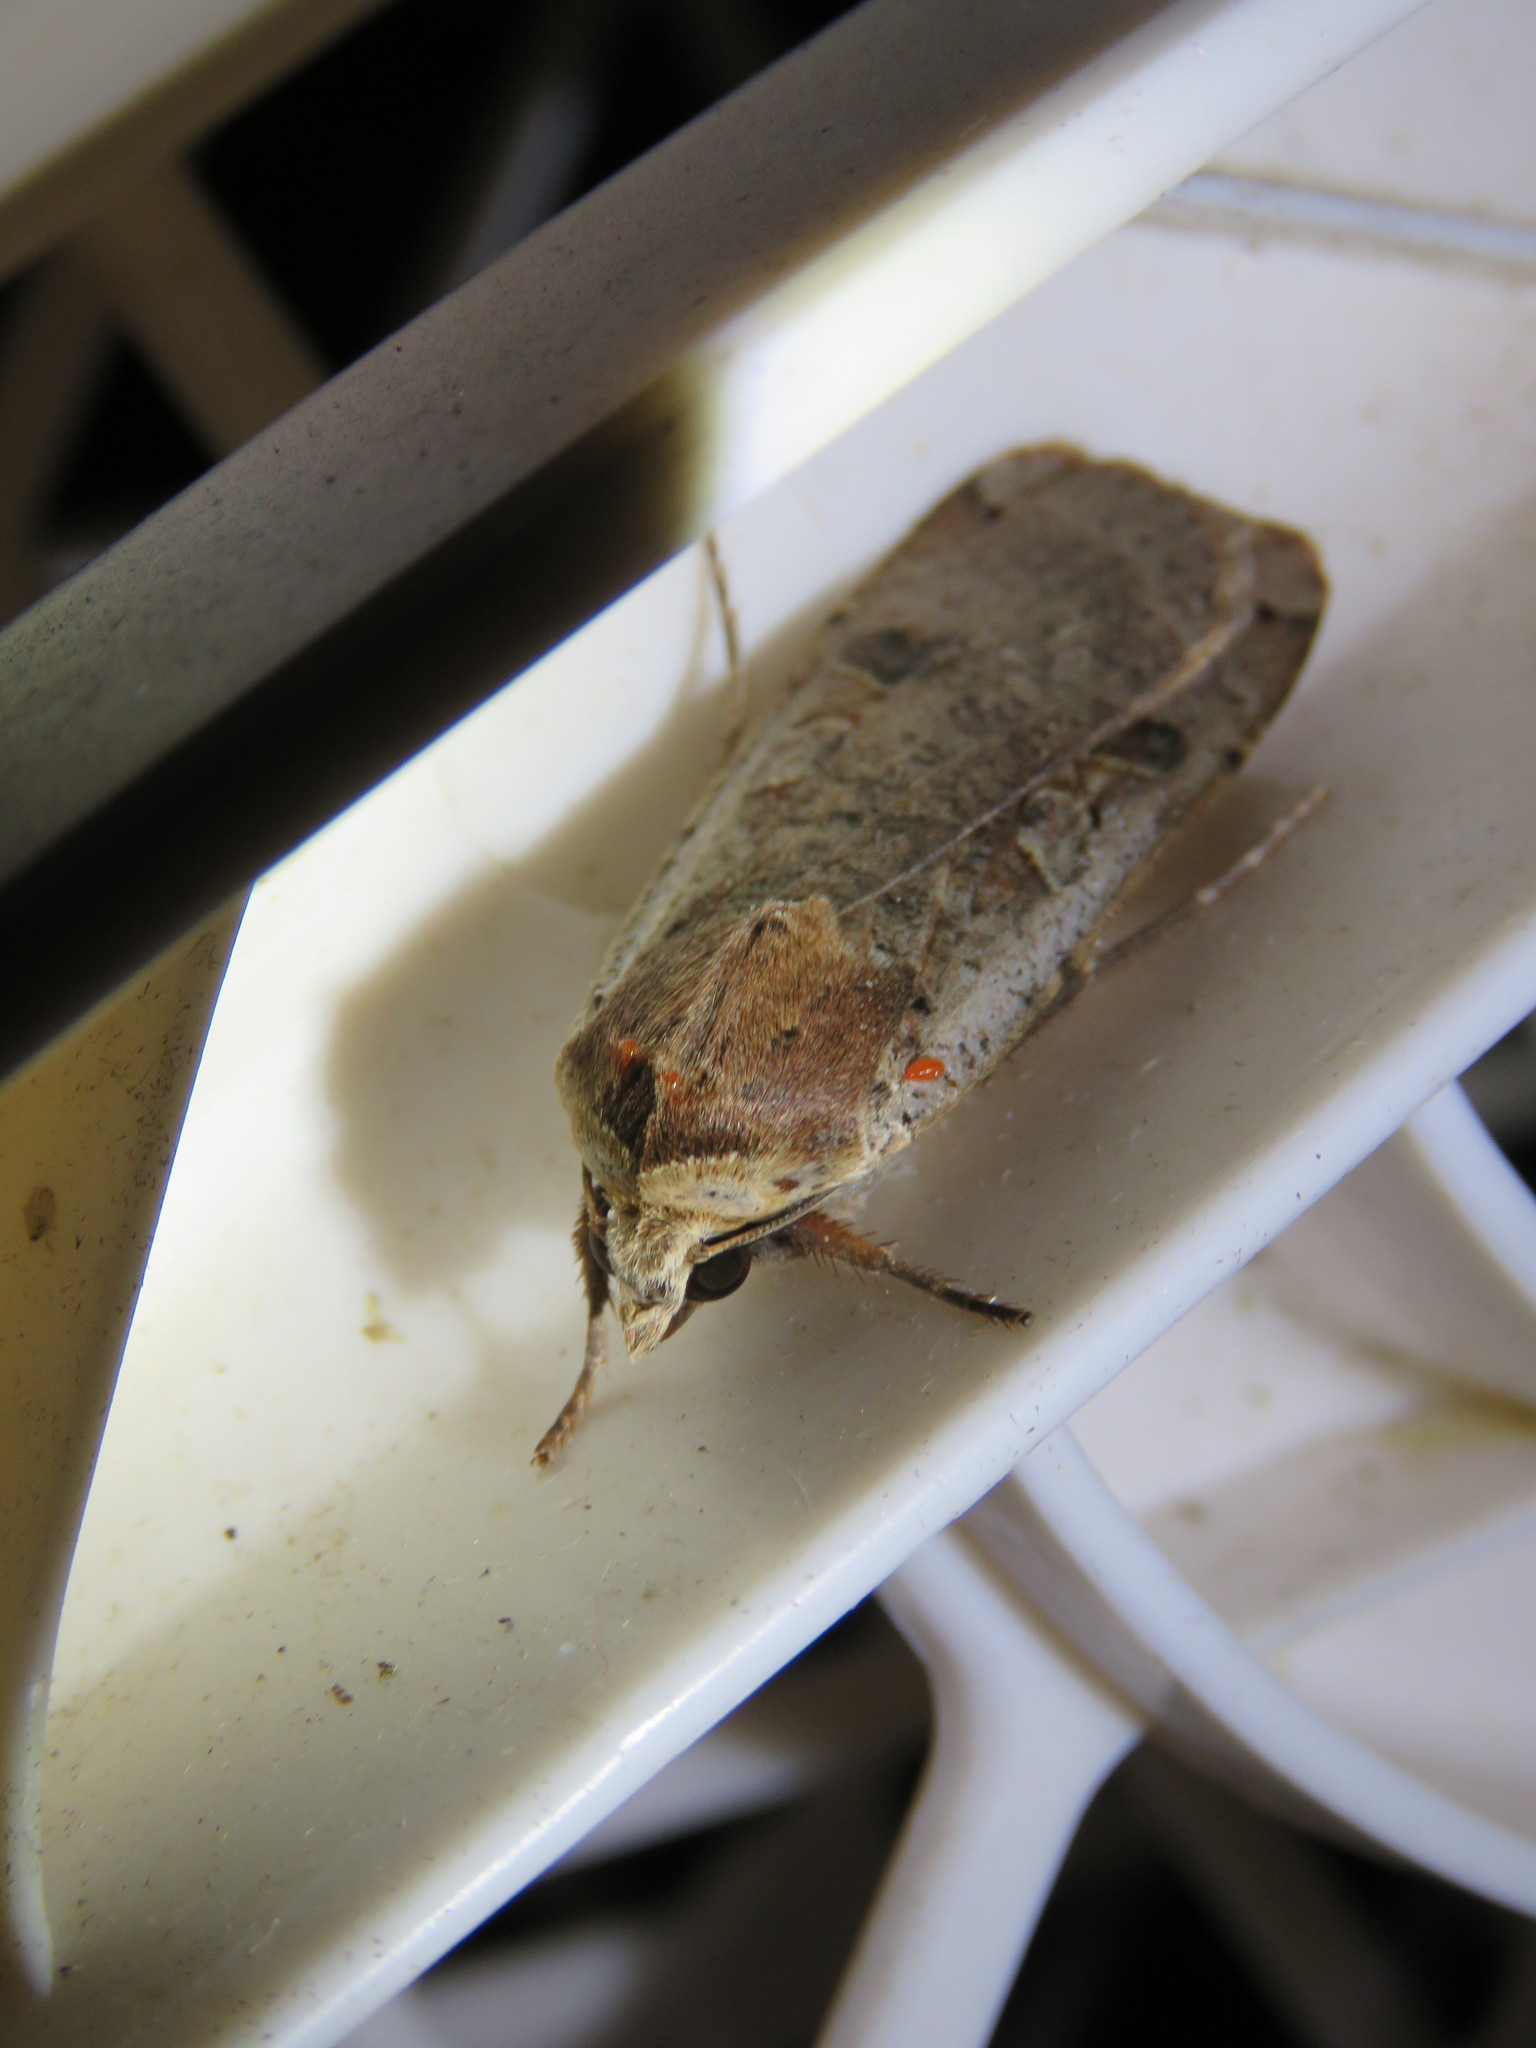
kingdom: Animalia
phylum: Arthropoda
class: Insecta
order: Lepidoptera
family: Noctuidae
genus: Noctua
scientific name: Noctua pronuba
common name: Large yellow underwing
